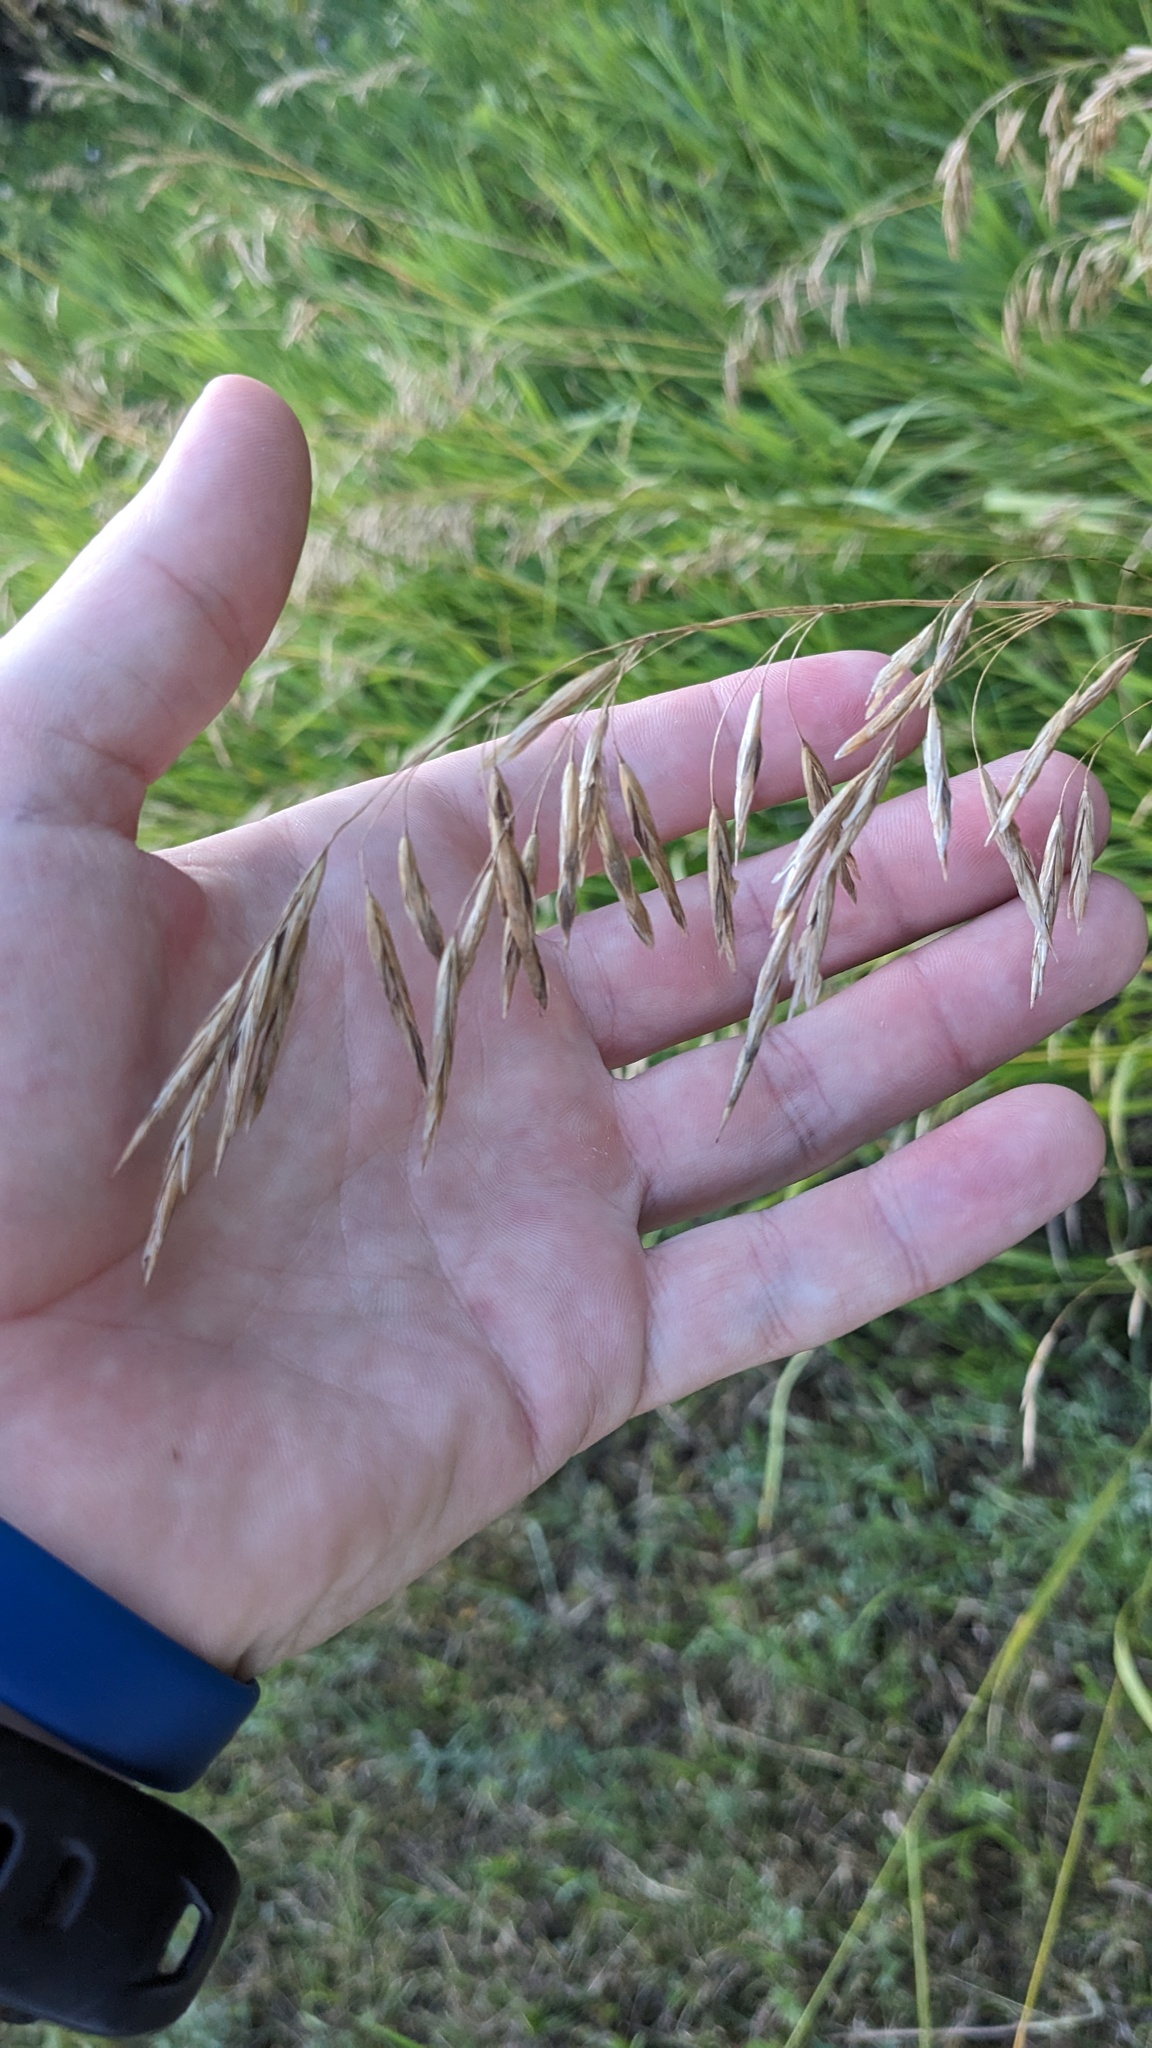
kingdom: Plantae
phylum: Tracheophyta
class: Liliopsida
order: Poales
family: Poaceae
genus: Bromus
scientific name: Bromus inermis
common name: Smooth brome
